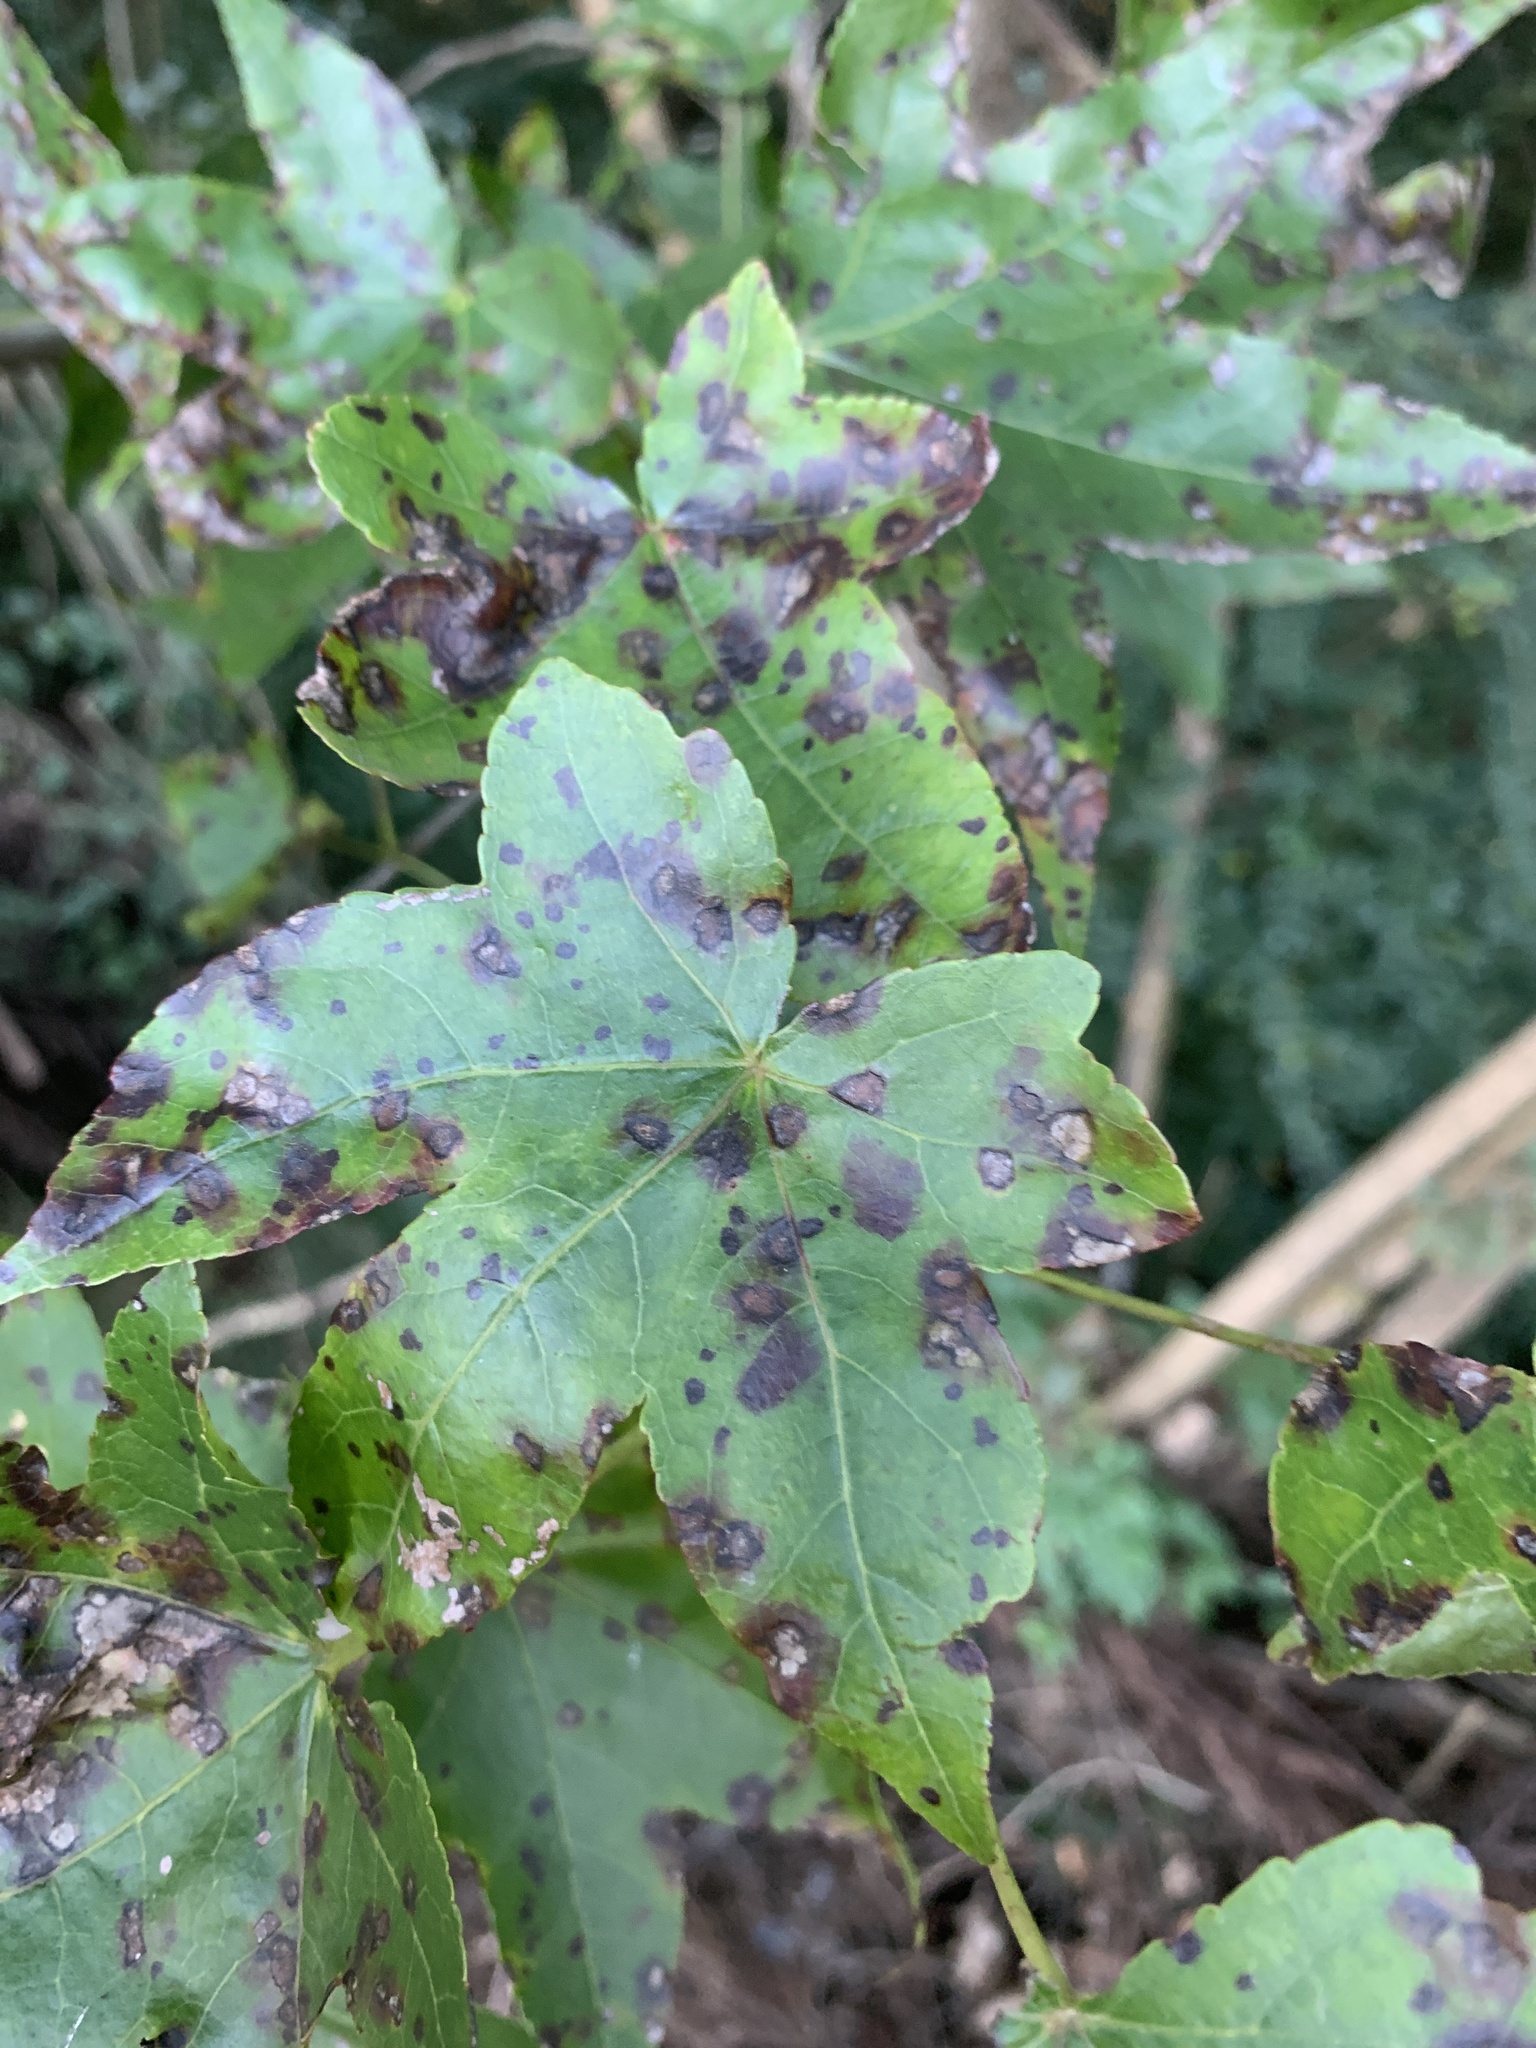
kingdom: Plantae
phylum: Tracheophyta
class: Magnoliopsida
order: Saxifragales
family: Altingiaceae
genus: Liquidambar
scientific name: Liquidambar styraciflua
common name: Sweet gum
